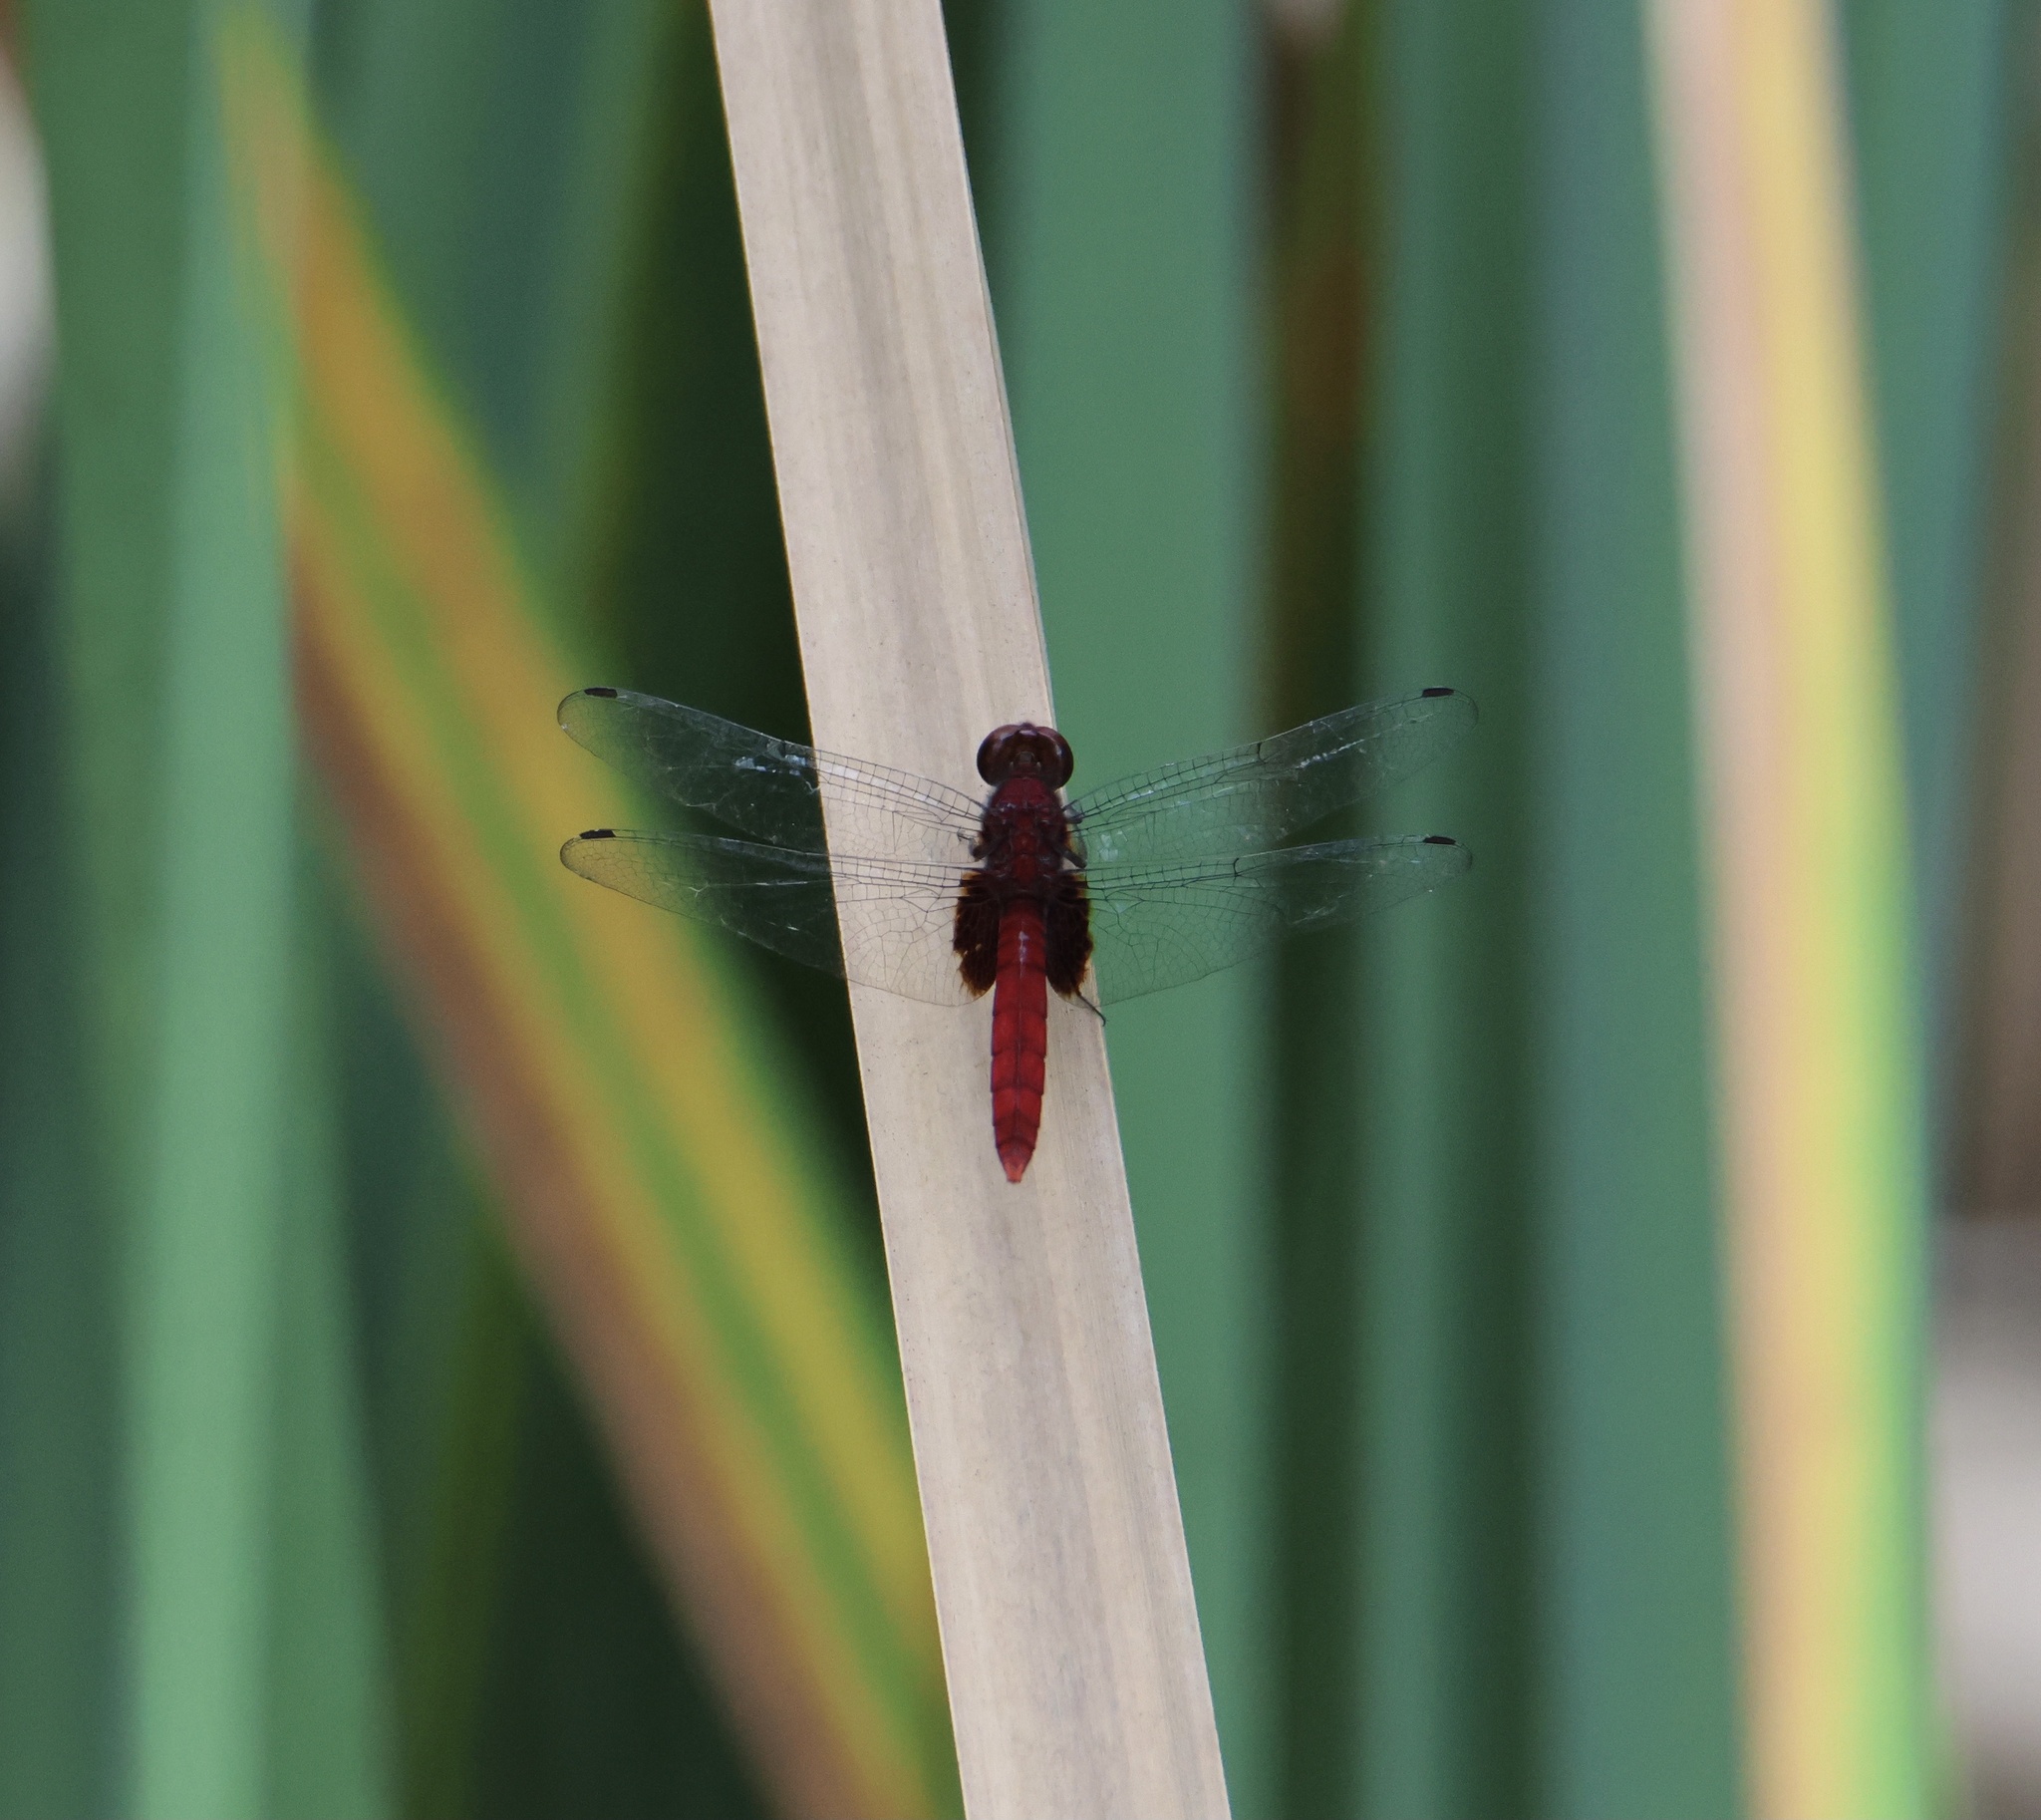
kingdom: Animalia
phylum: Arthropoda
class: Insecta
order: Odonata
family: Libellulidae
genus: Erythemis
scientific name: Erythemis mithroides
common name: Claret pondhawk
